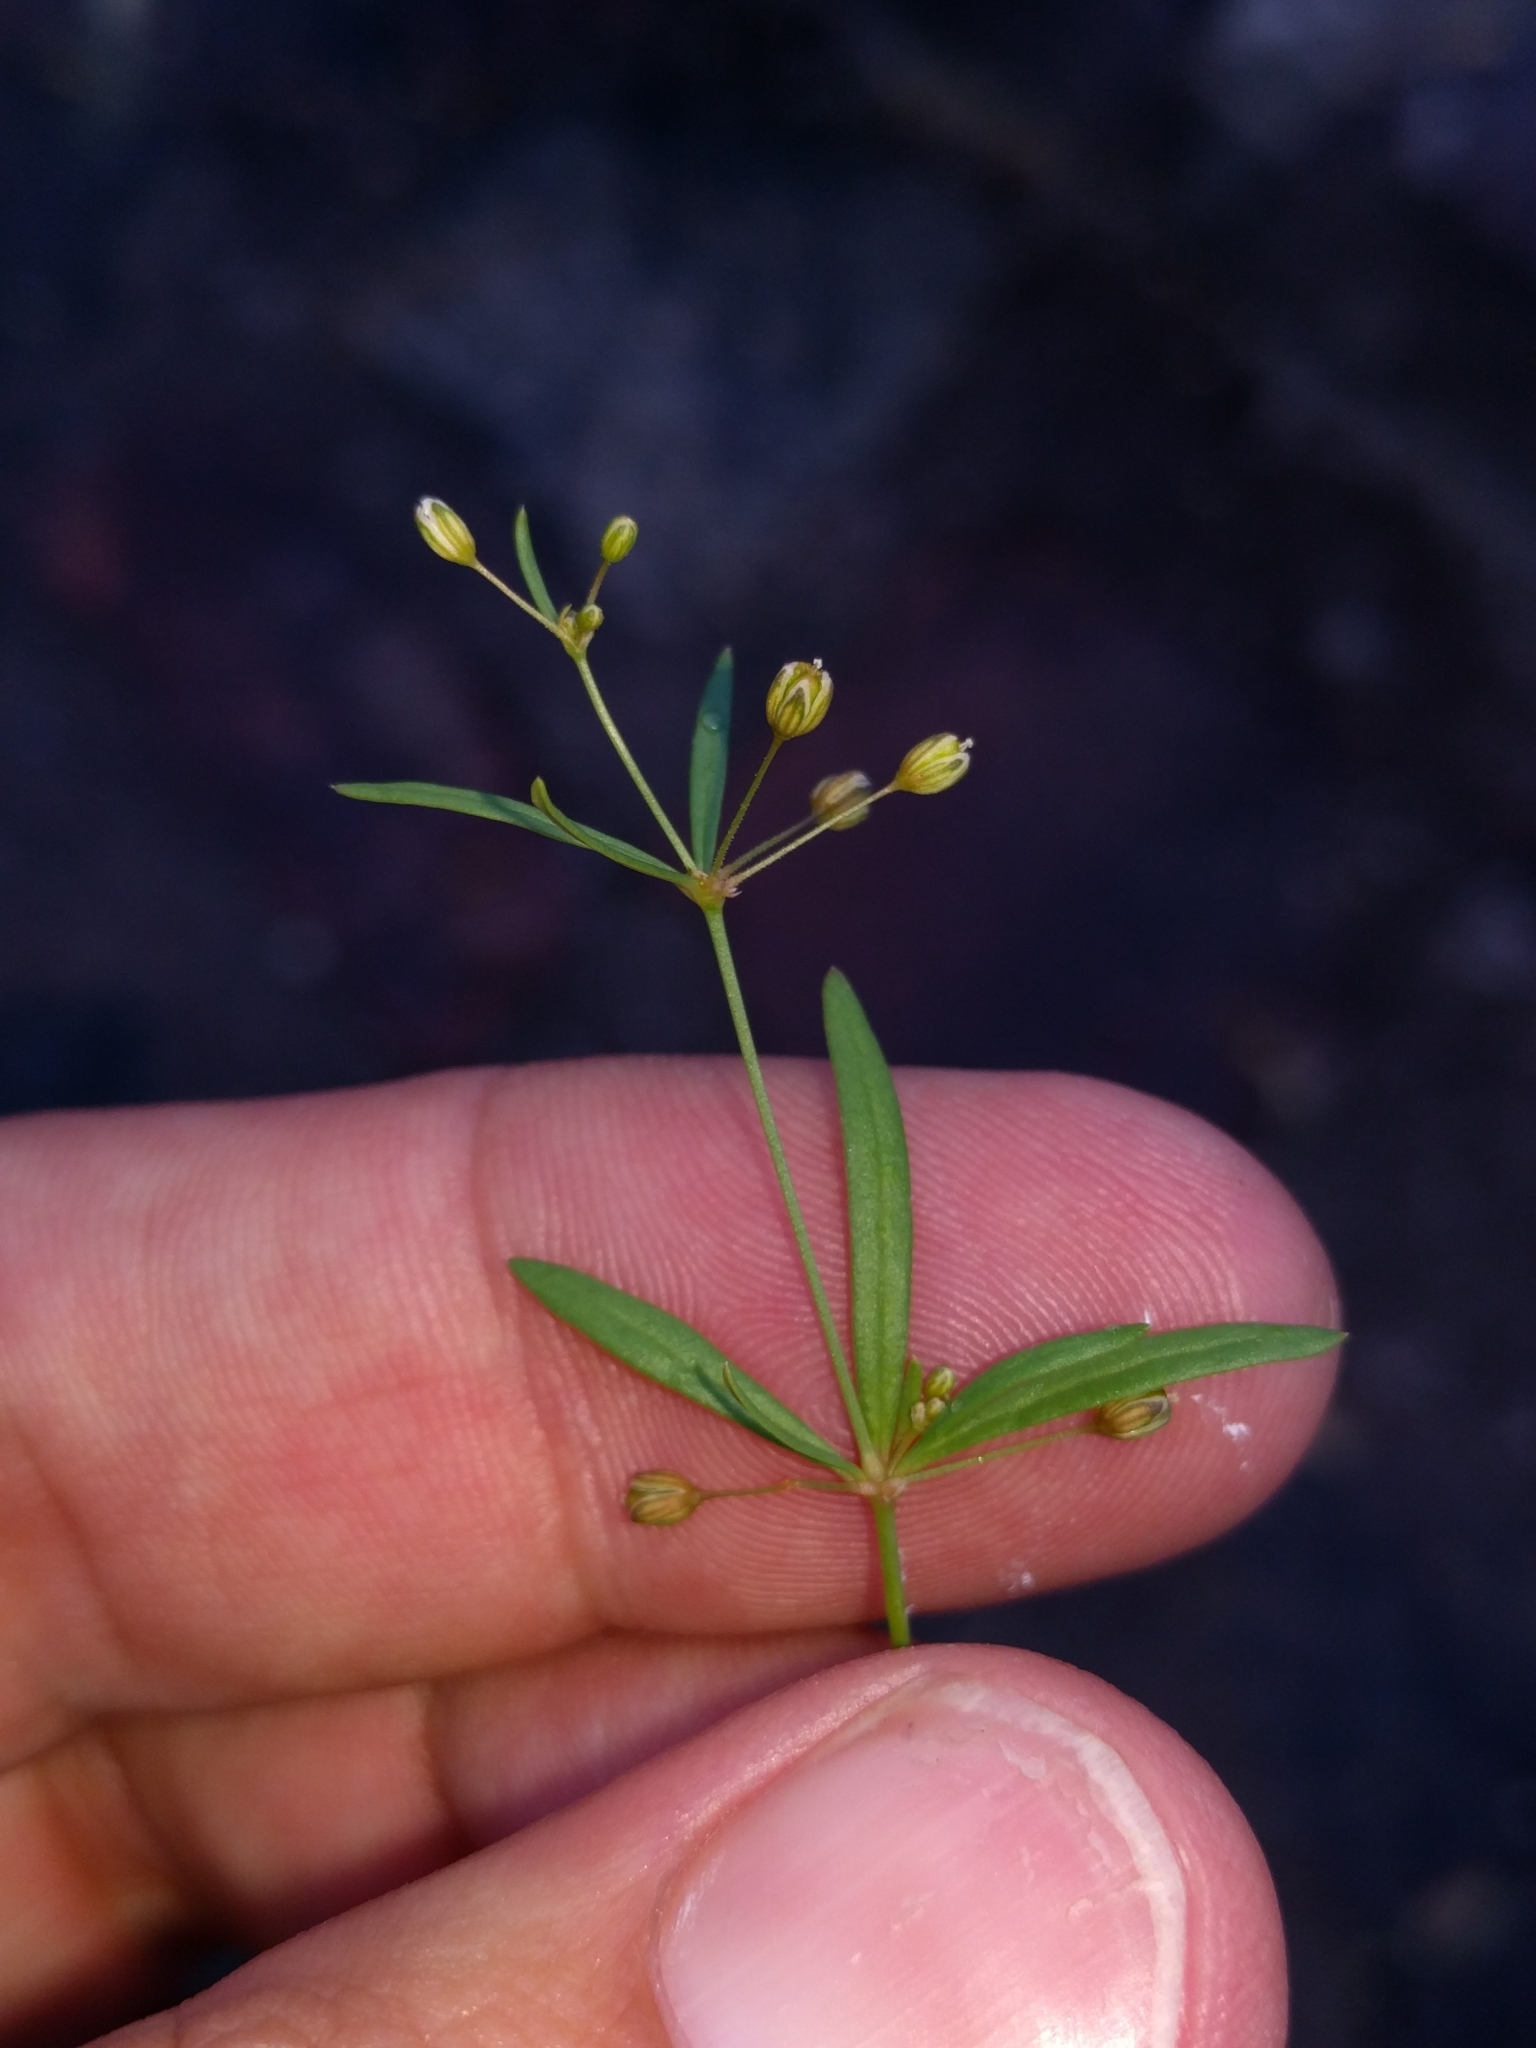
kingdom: Plantae
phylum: Tracheophyta
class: Magnoliopsida
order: Caryophyllales
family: Molluginaceae
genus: Mollugo
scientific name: Mollugo verticillata
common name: Green carpetweed
